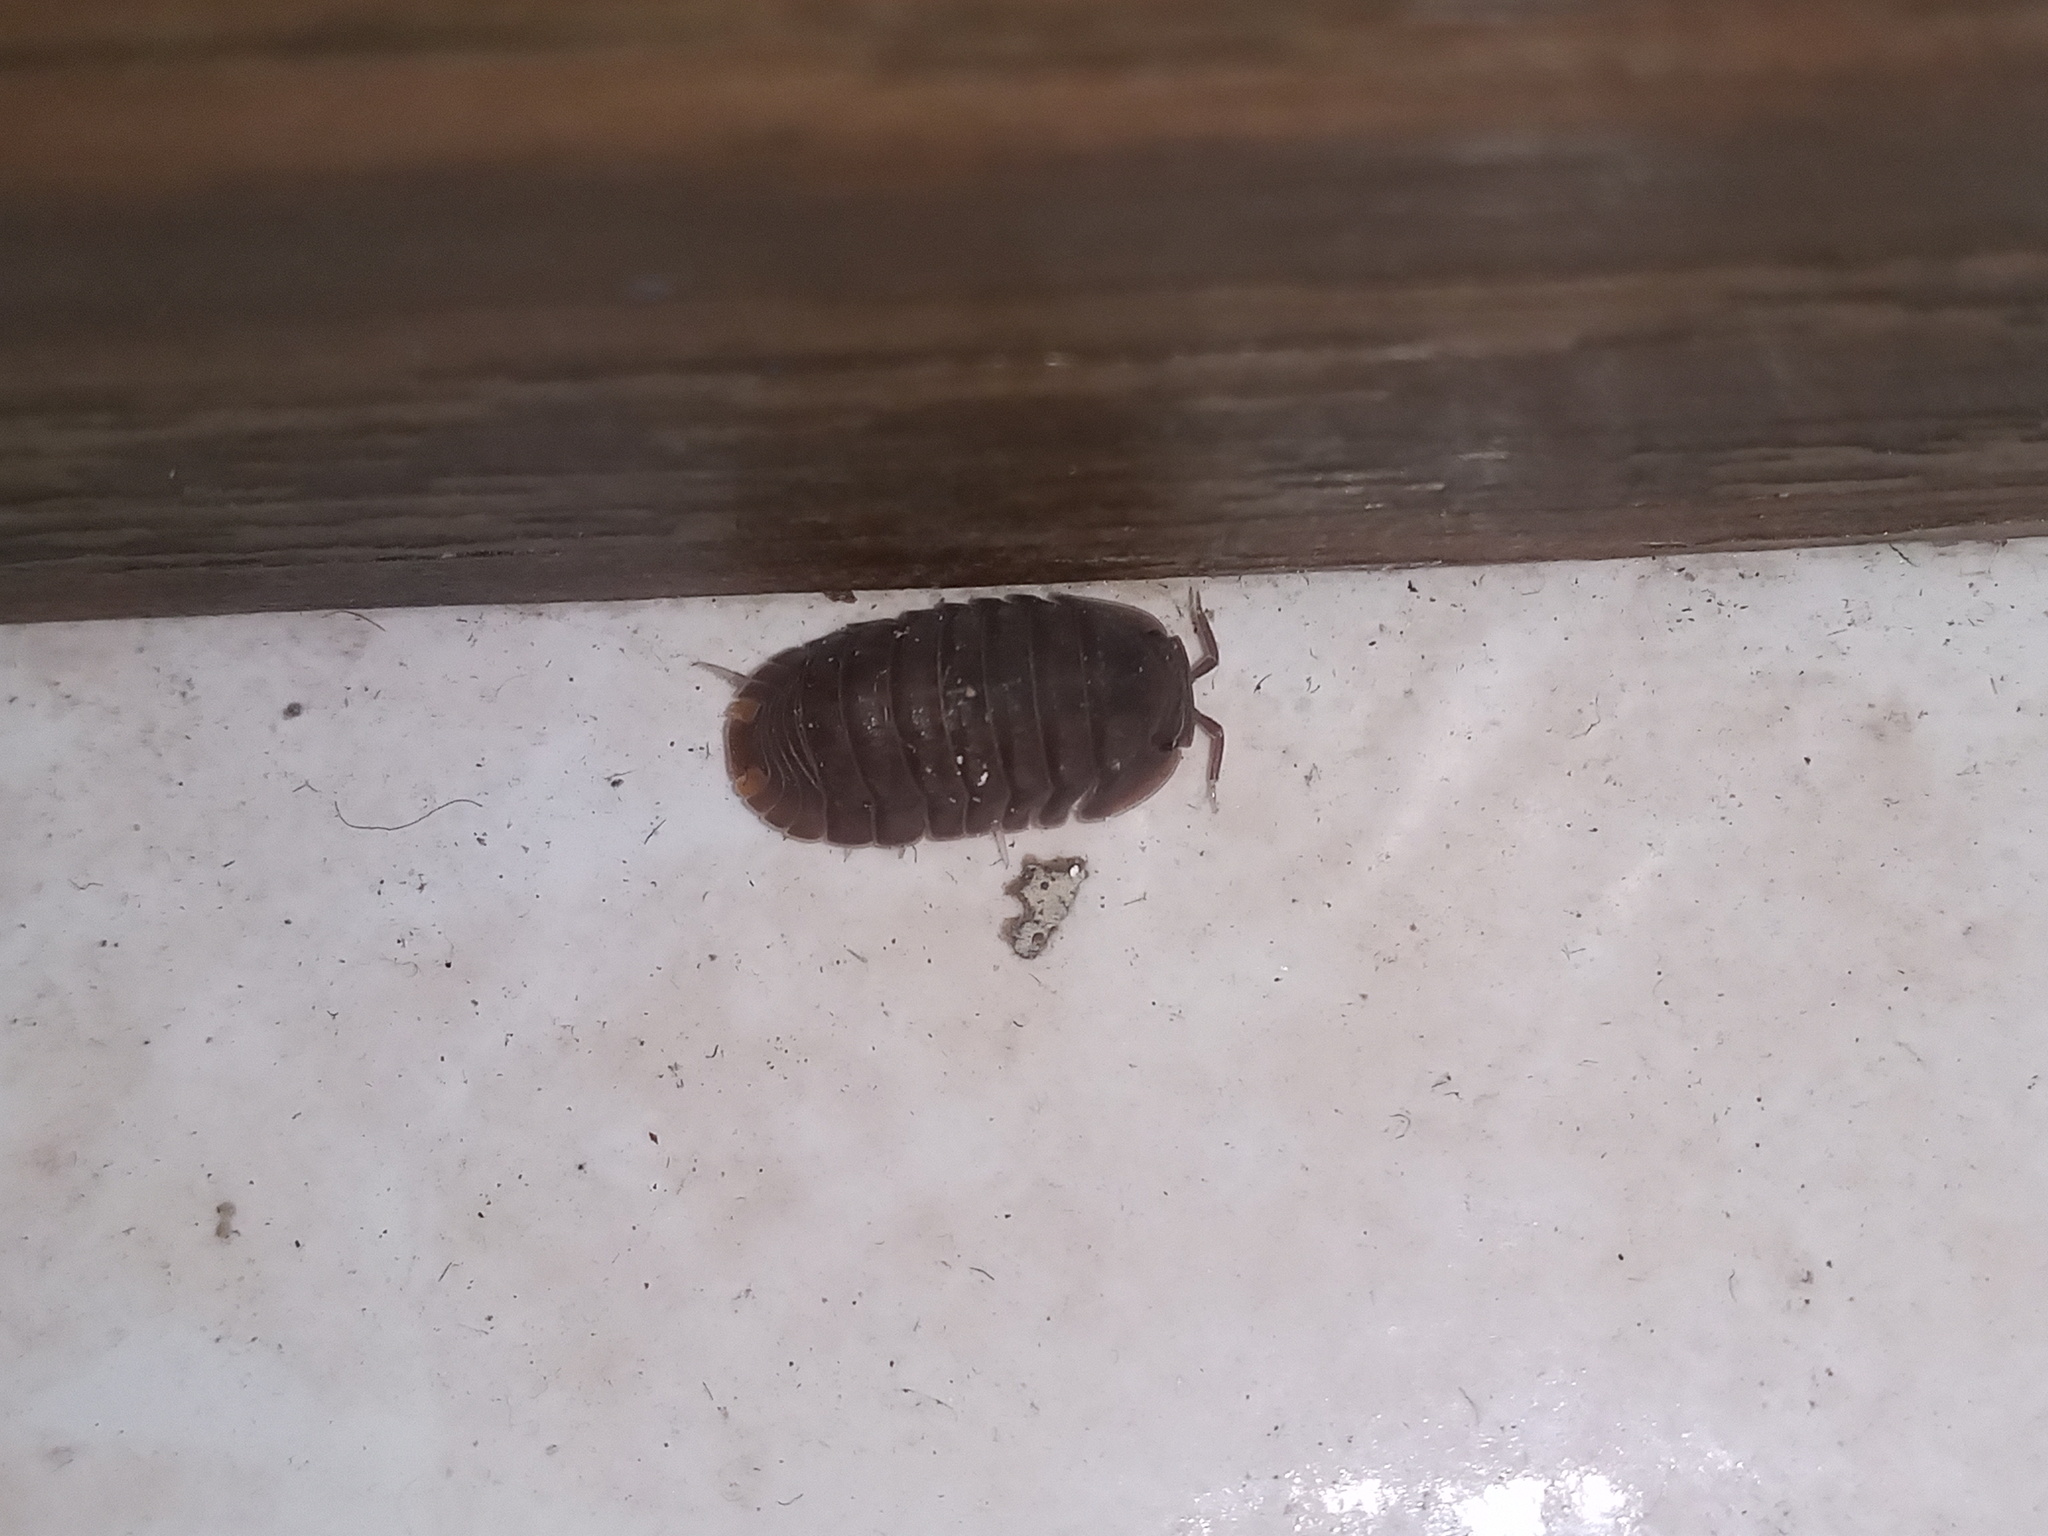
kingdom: Animalia
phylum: Arthropoda
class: Malacostraca
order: Isopoda
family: Armadillidae
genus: Cubaris
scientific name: Cubaris murina
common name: Pillbug
